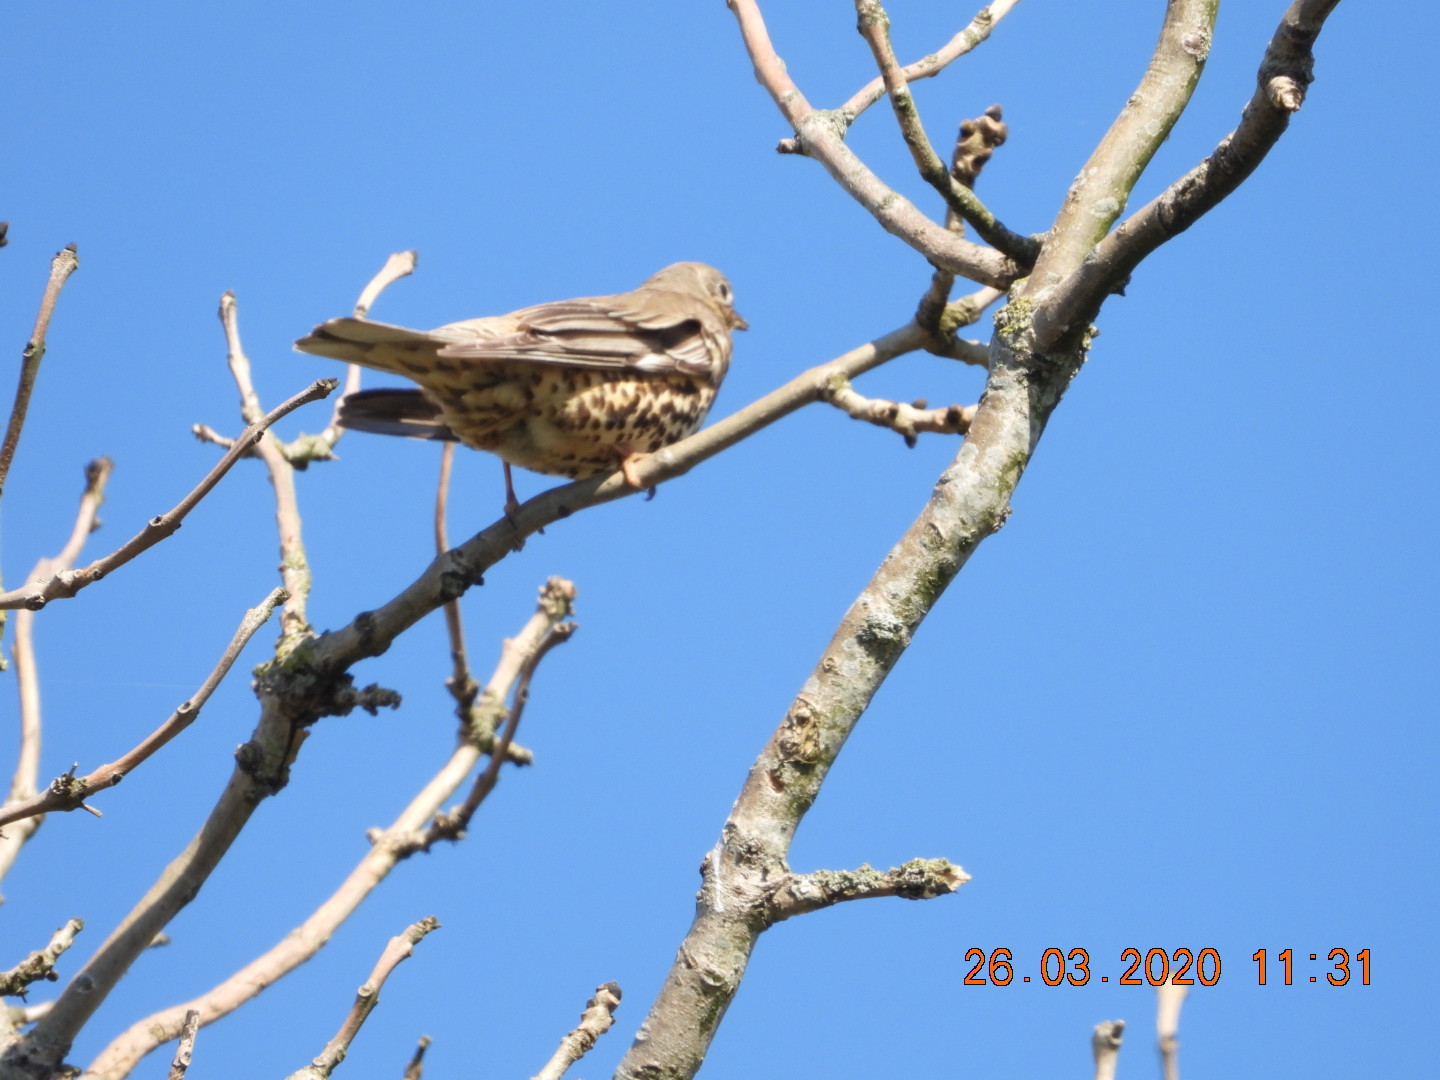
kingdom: Animalia
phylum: Chordata
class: Aves
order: Passeriformes
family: Turdidae
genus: Turdus
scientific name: Turdus viscivorus
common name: Mistle thrush
